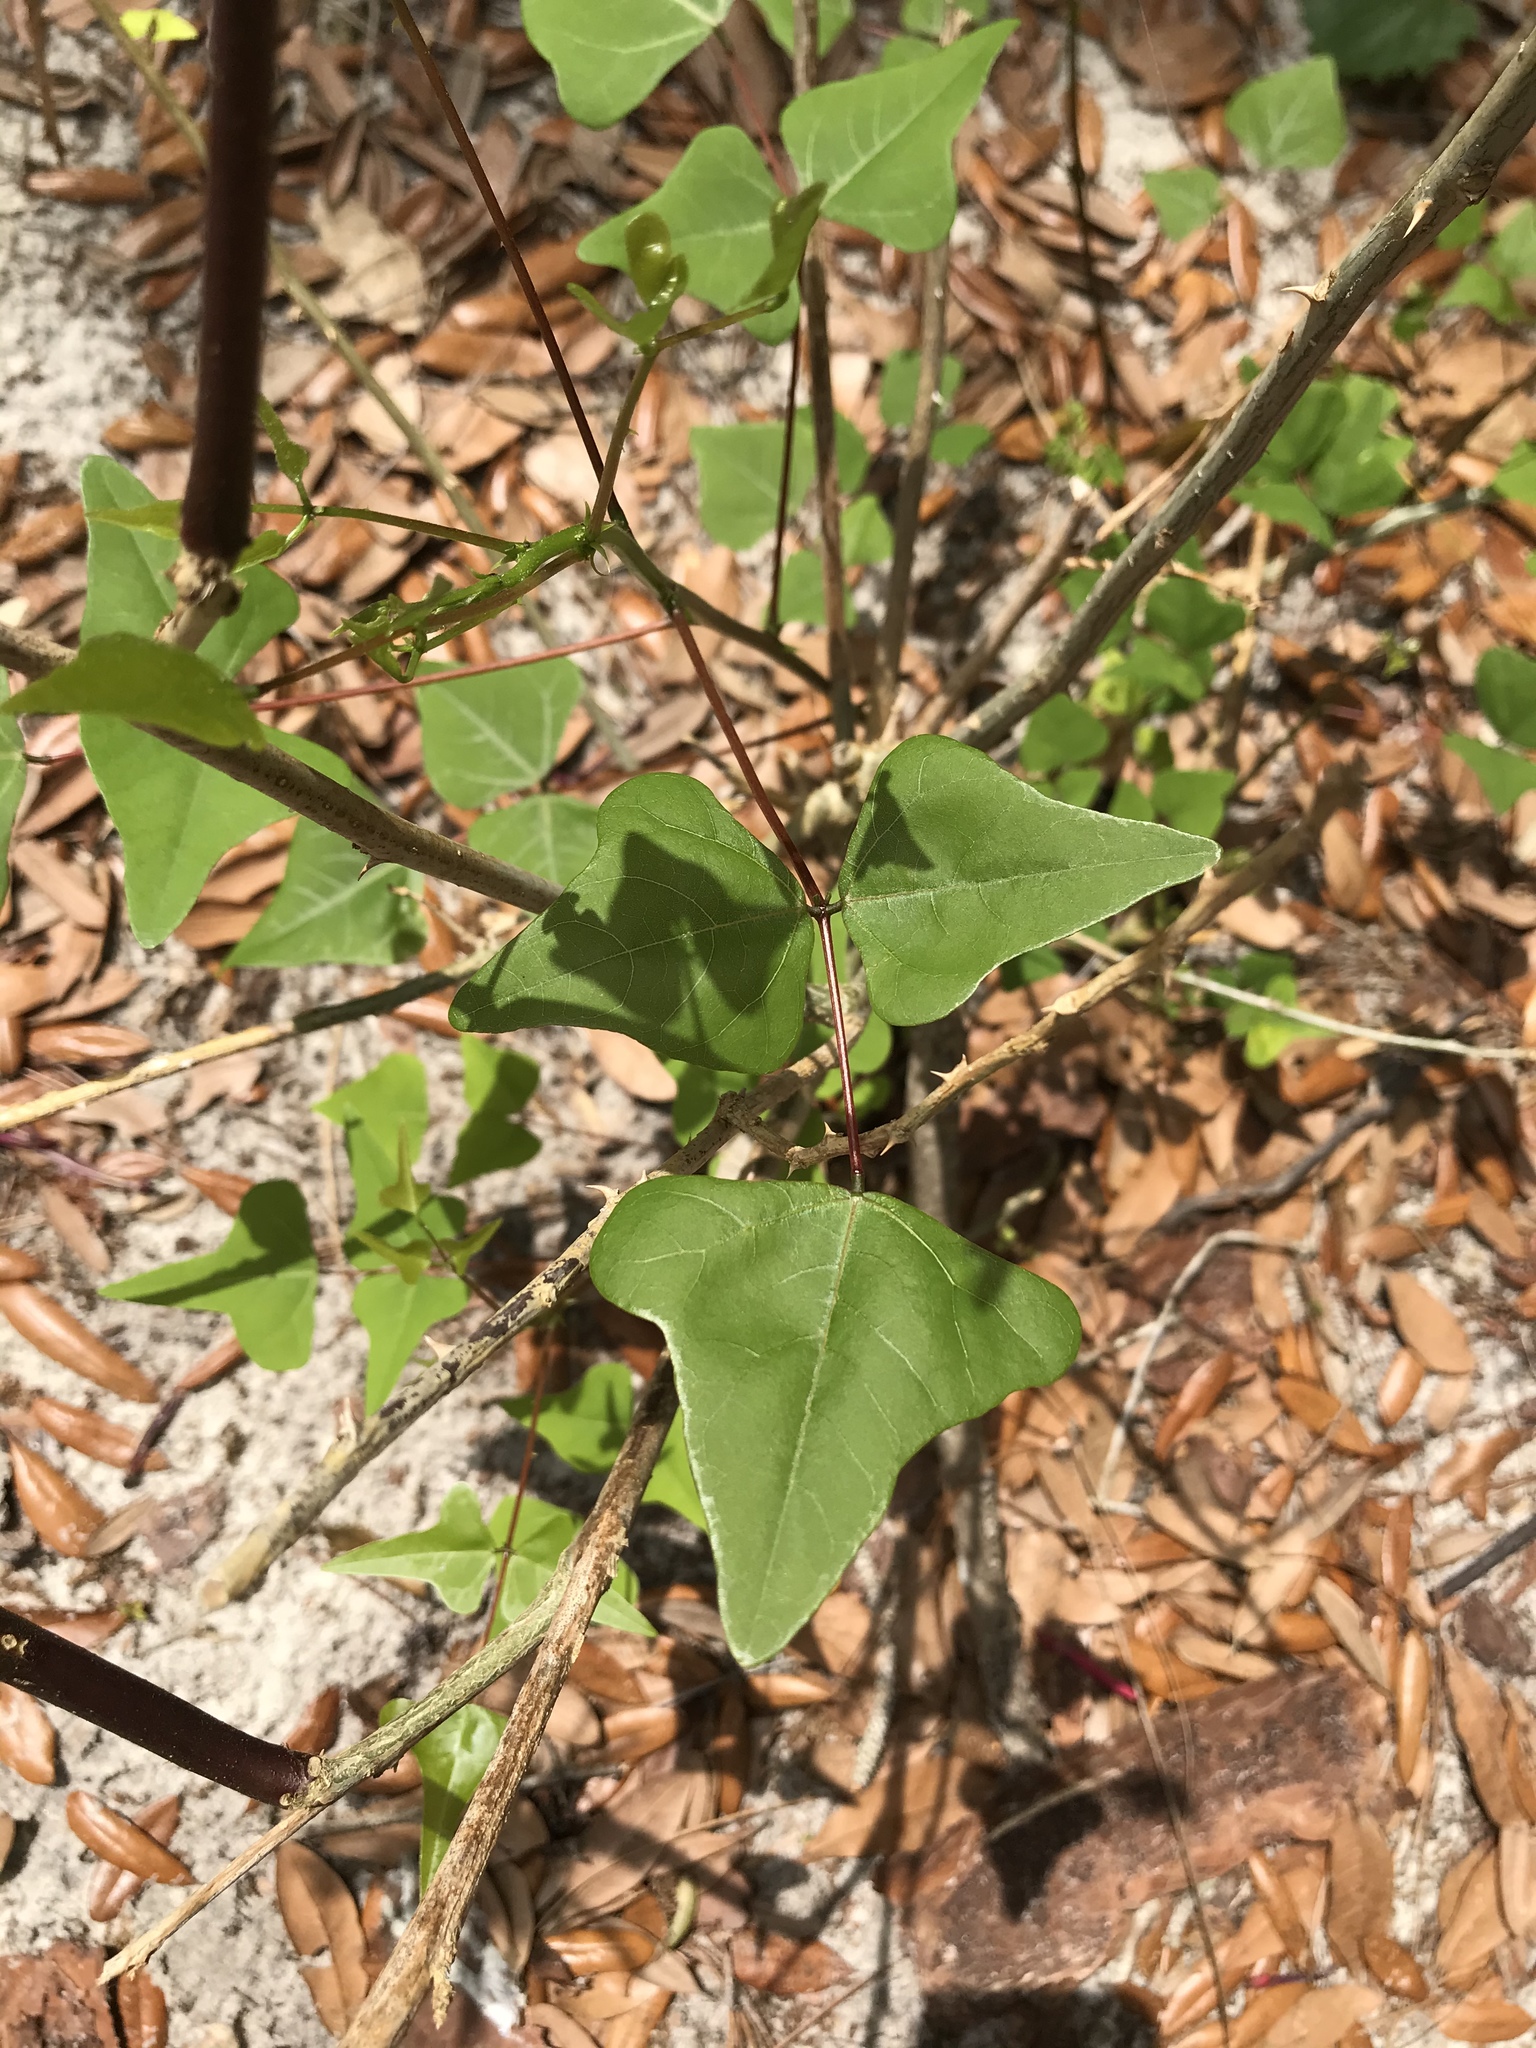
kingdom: Plantae
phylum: Tracheophyta
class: Magnoliopsida
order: Fabales
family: Fabaceae
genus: Erythrina
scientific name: Erythrina herbacea
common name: Coral-bean
